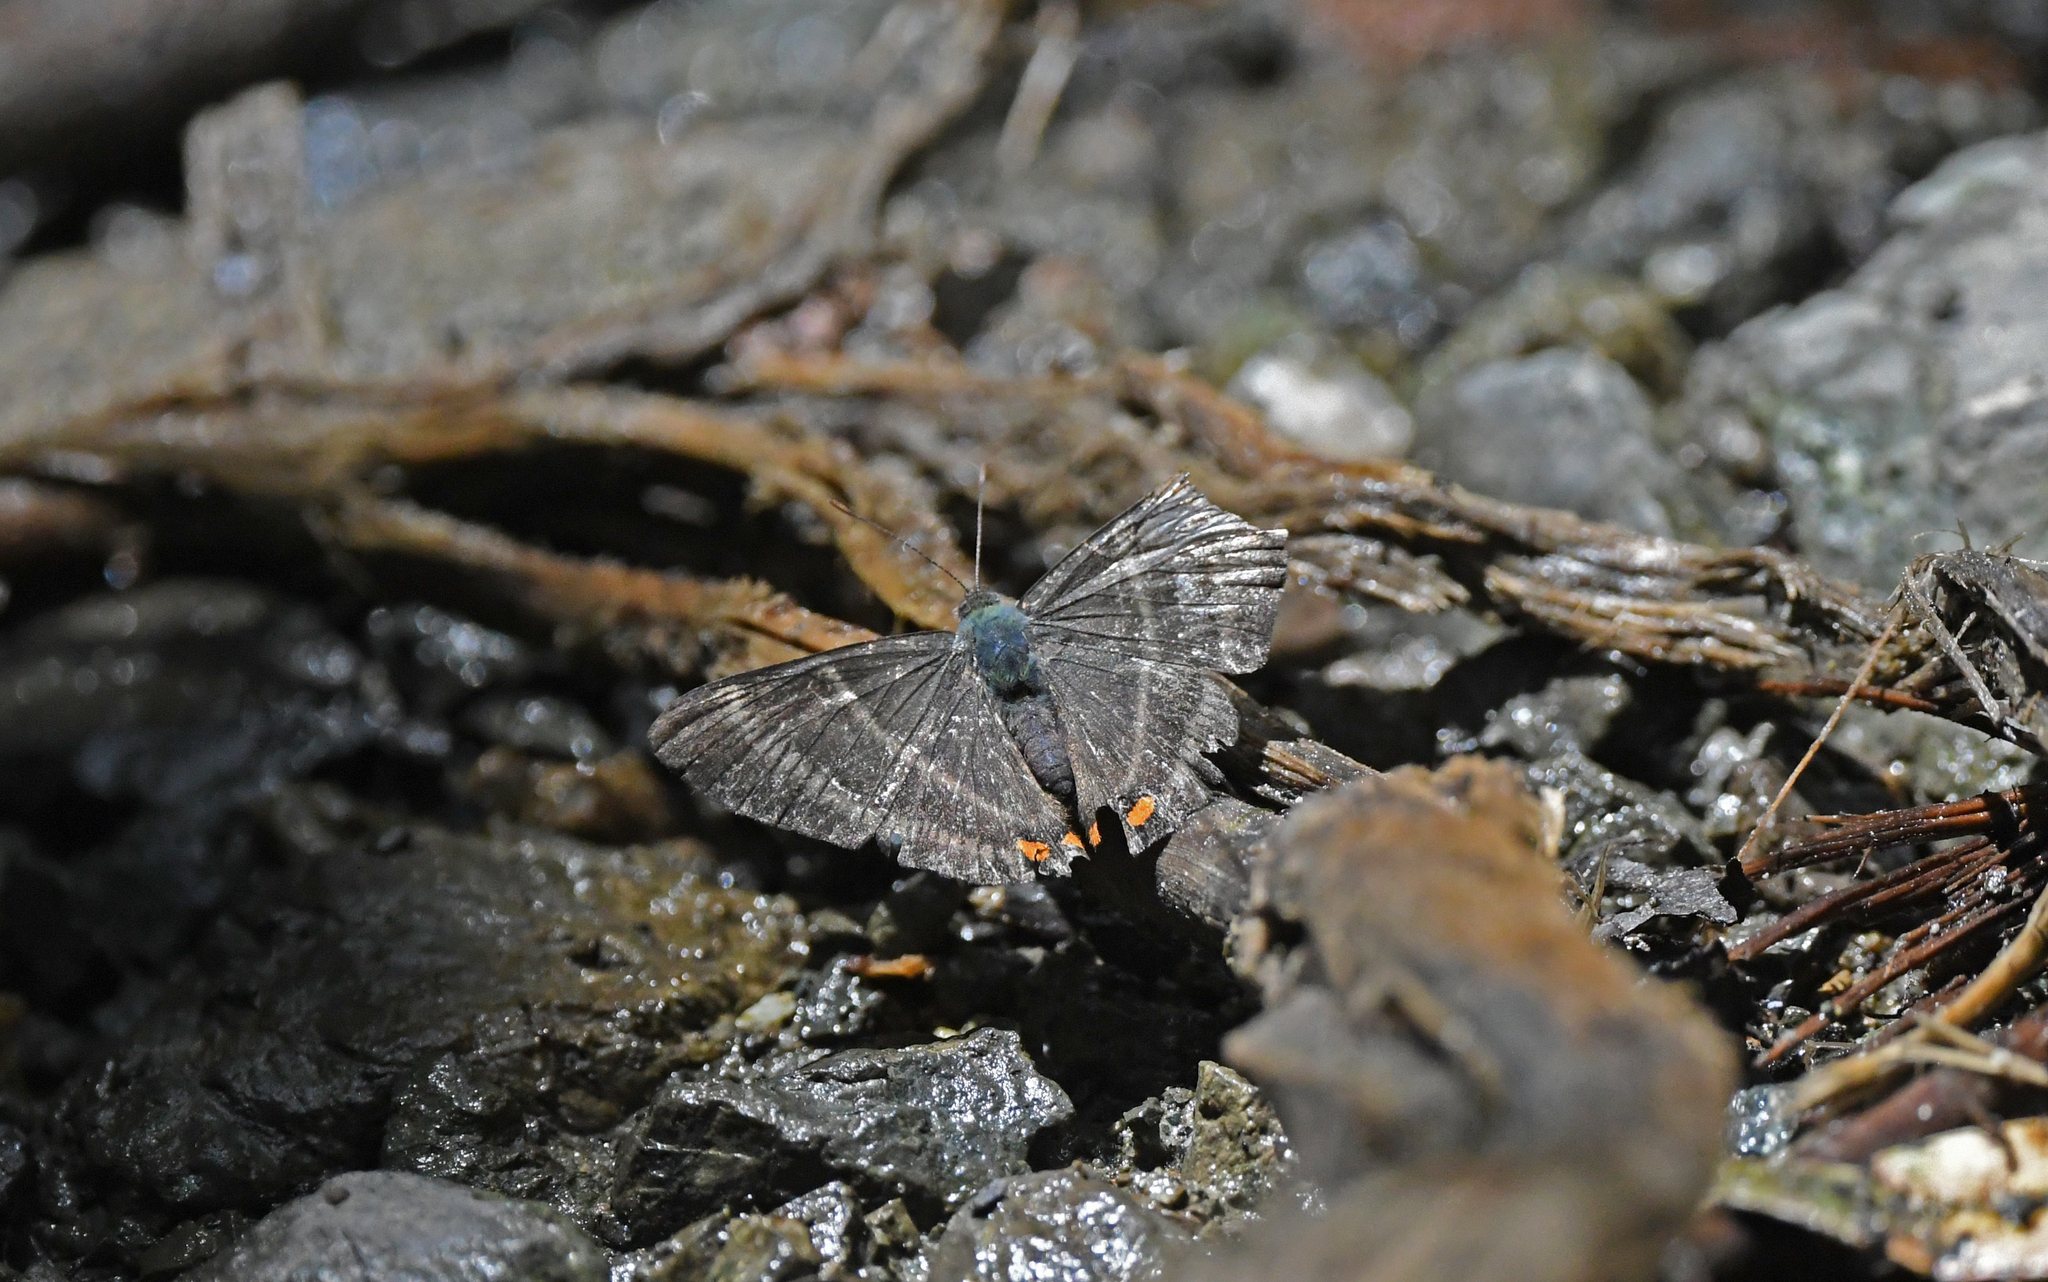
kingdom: Animalia
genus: Siseme
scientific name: Siseme aristoteles
